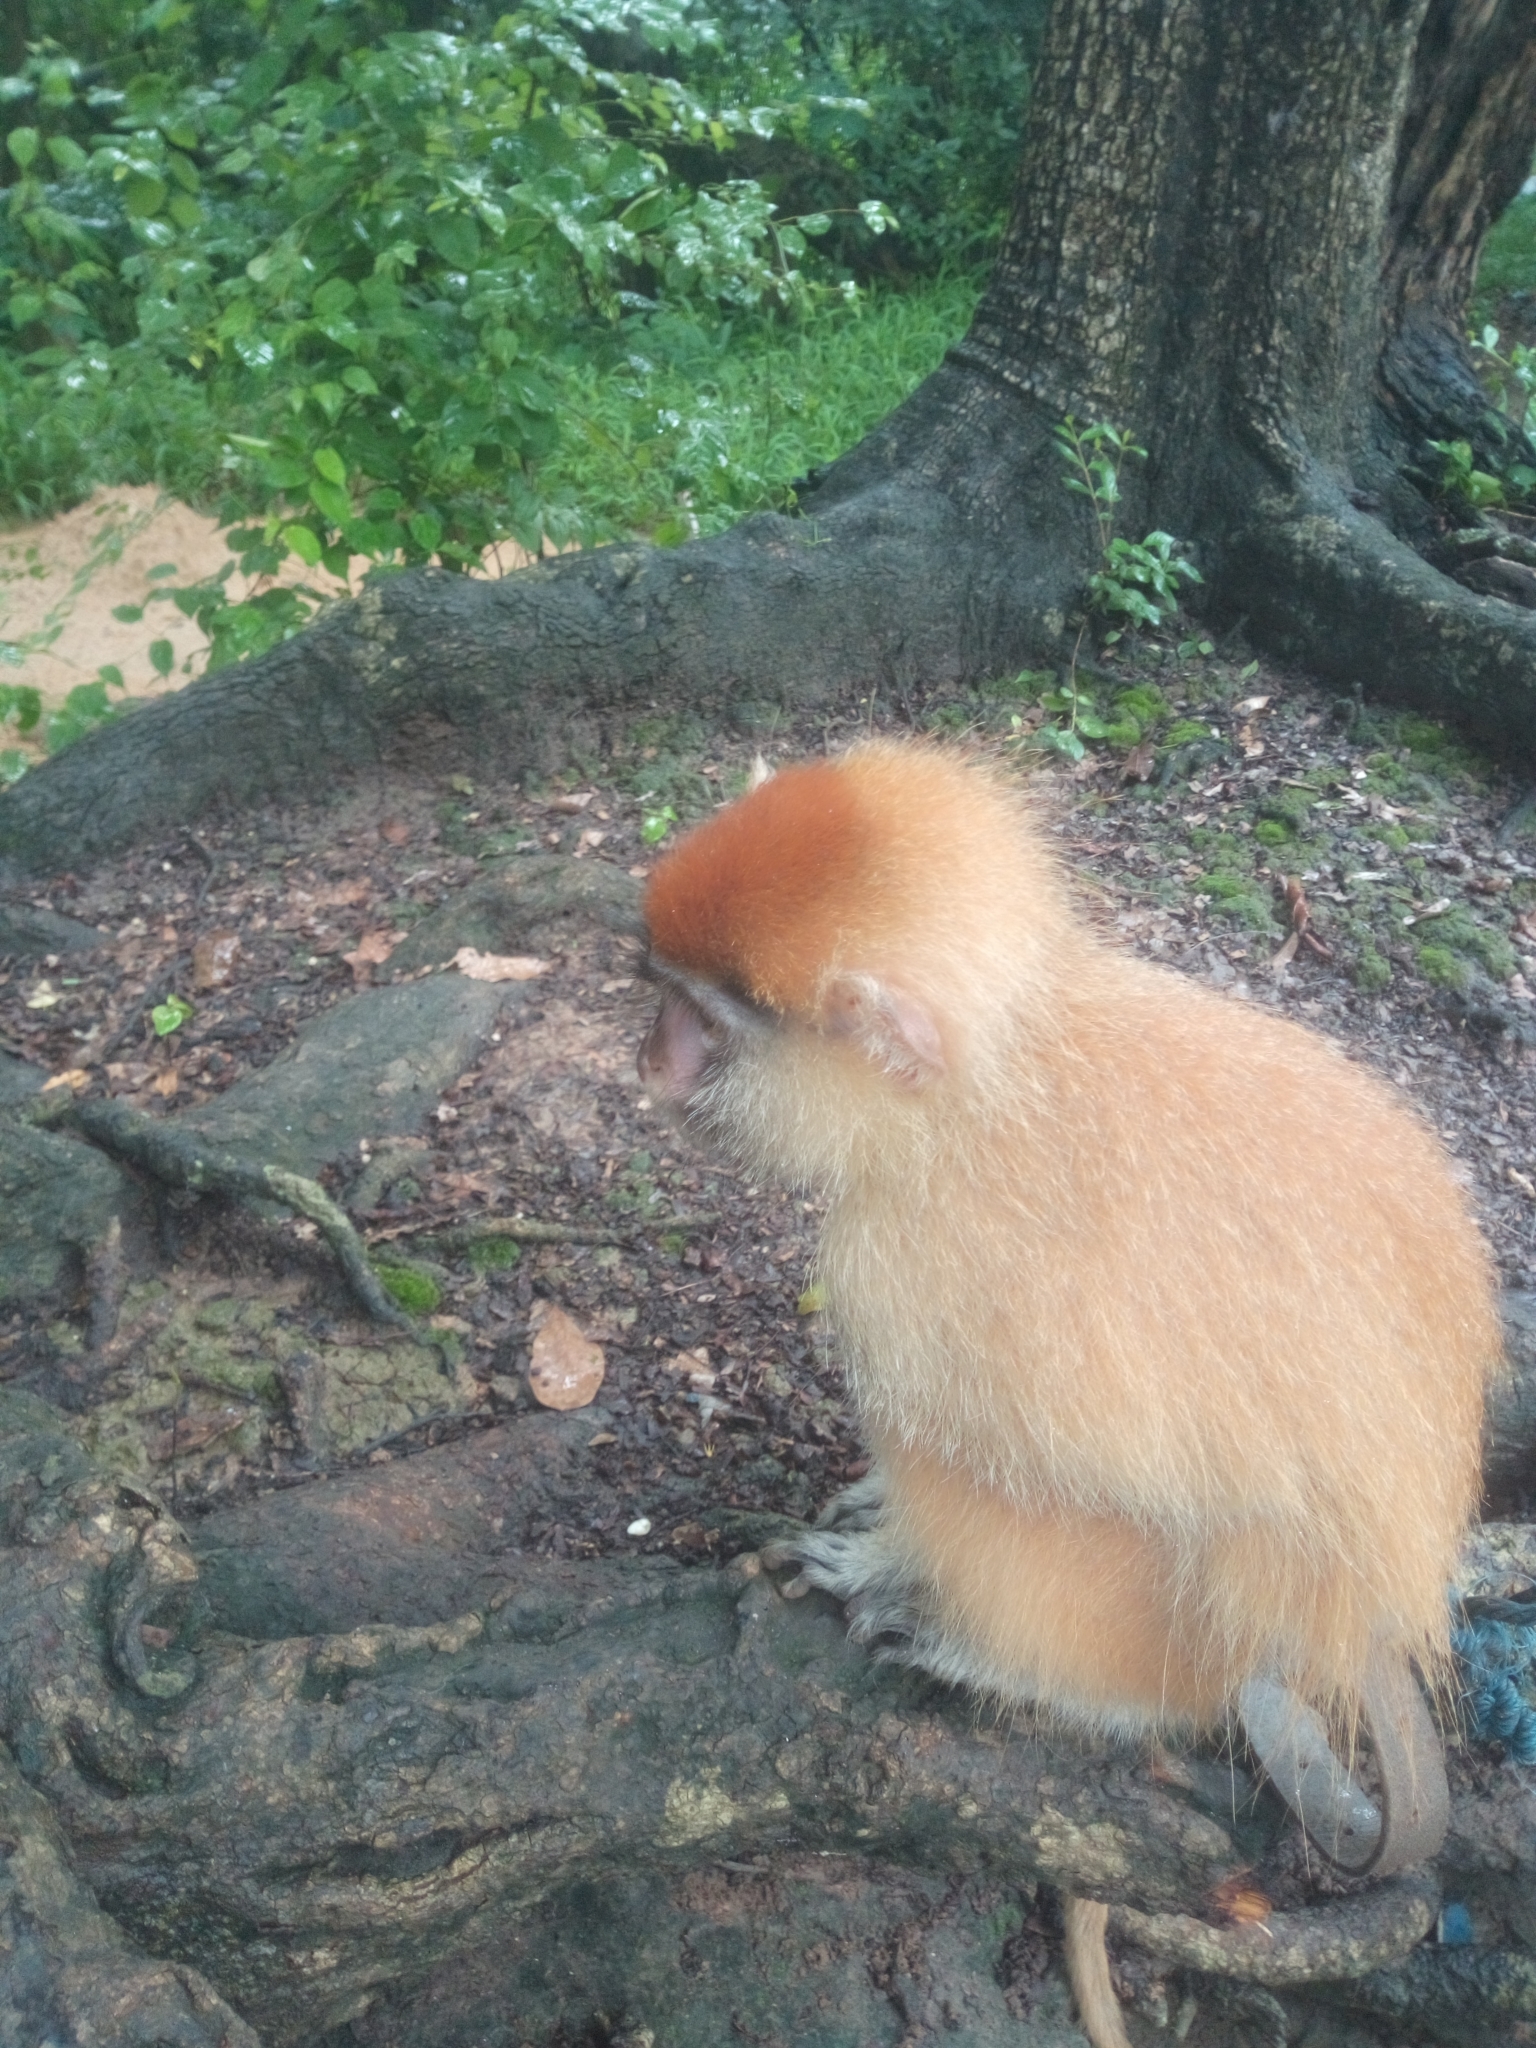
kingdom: Animalia
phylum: Chordata
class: Mammalia
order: Primates
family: Cercopithecidae
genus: Erythrocebus
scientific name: Erythrocebus patas
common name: Patas monkey
